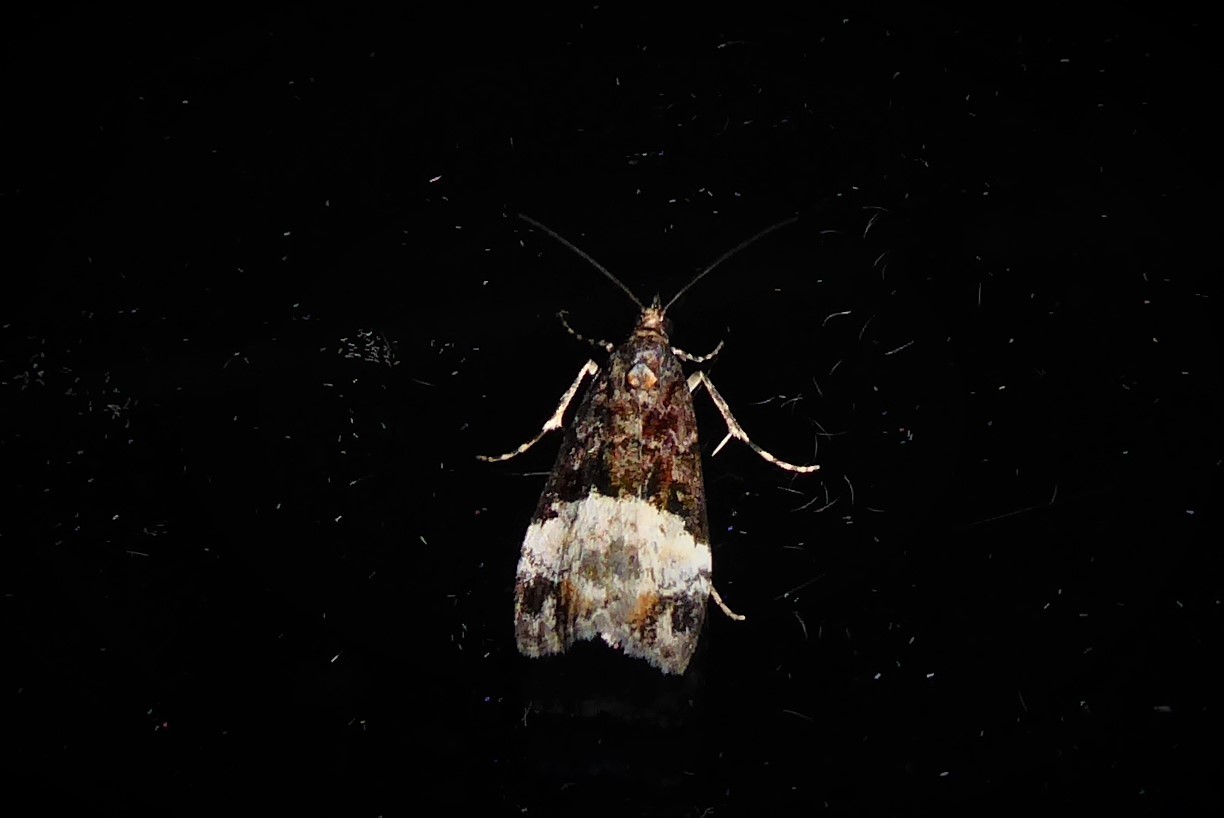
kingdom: Animalia
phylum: Arthropoda
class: Insecta
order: Lepidoptera
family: Crambidae
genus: Scoparia
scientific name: Scoparia minusculalis
